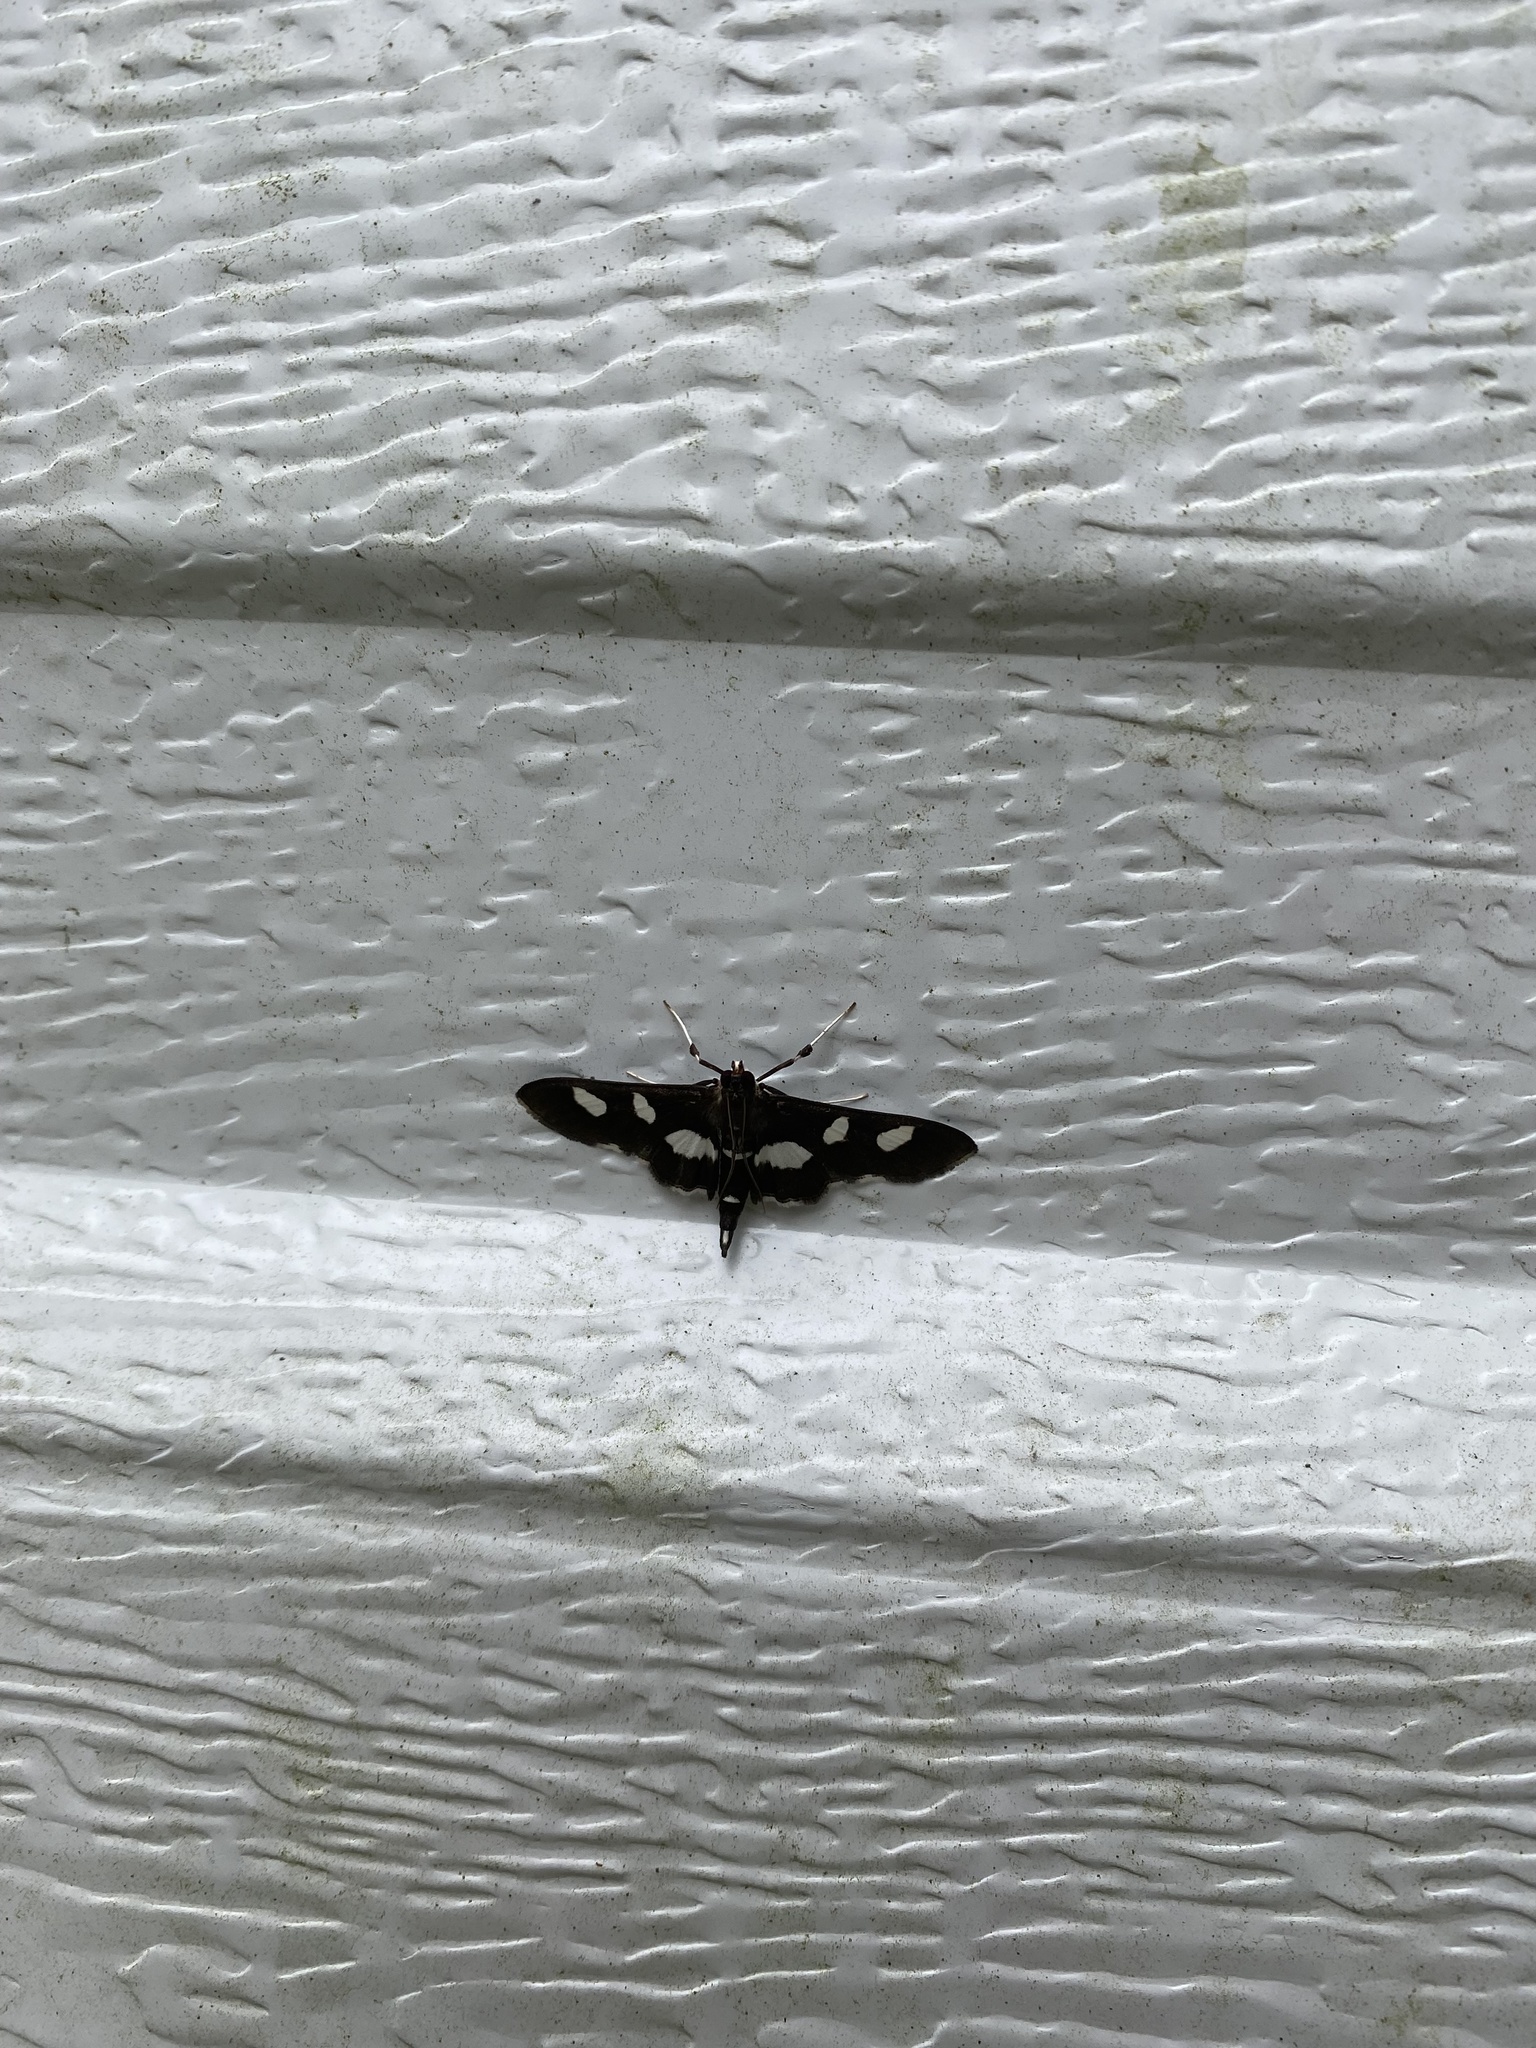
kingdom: Animalia
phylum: Arthropoda
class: Insecta
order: Lepidoptera
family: Crambidae
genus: Desmia
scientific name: Desmia
